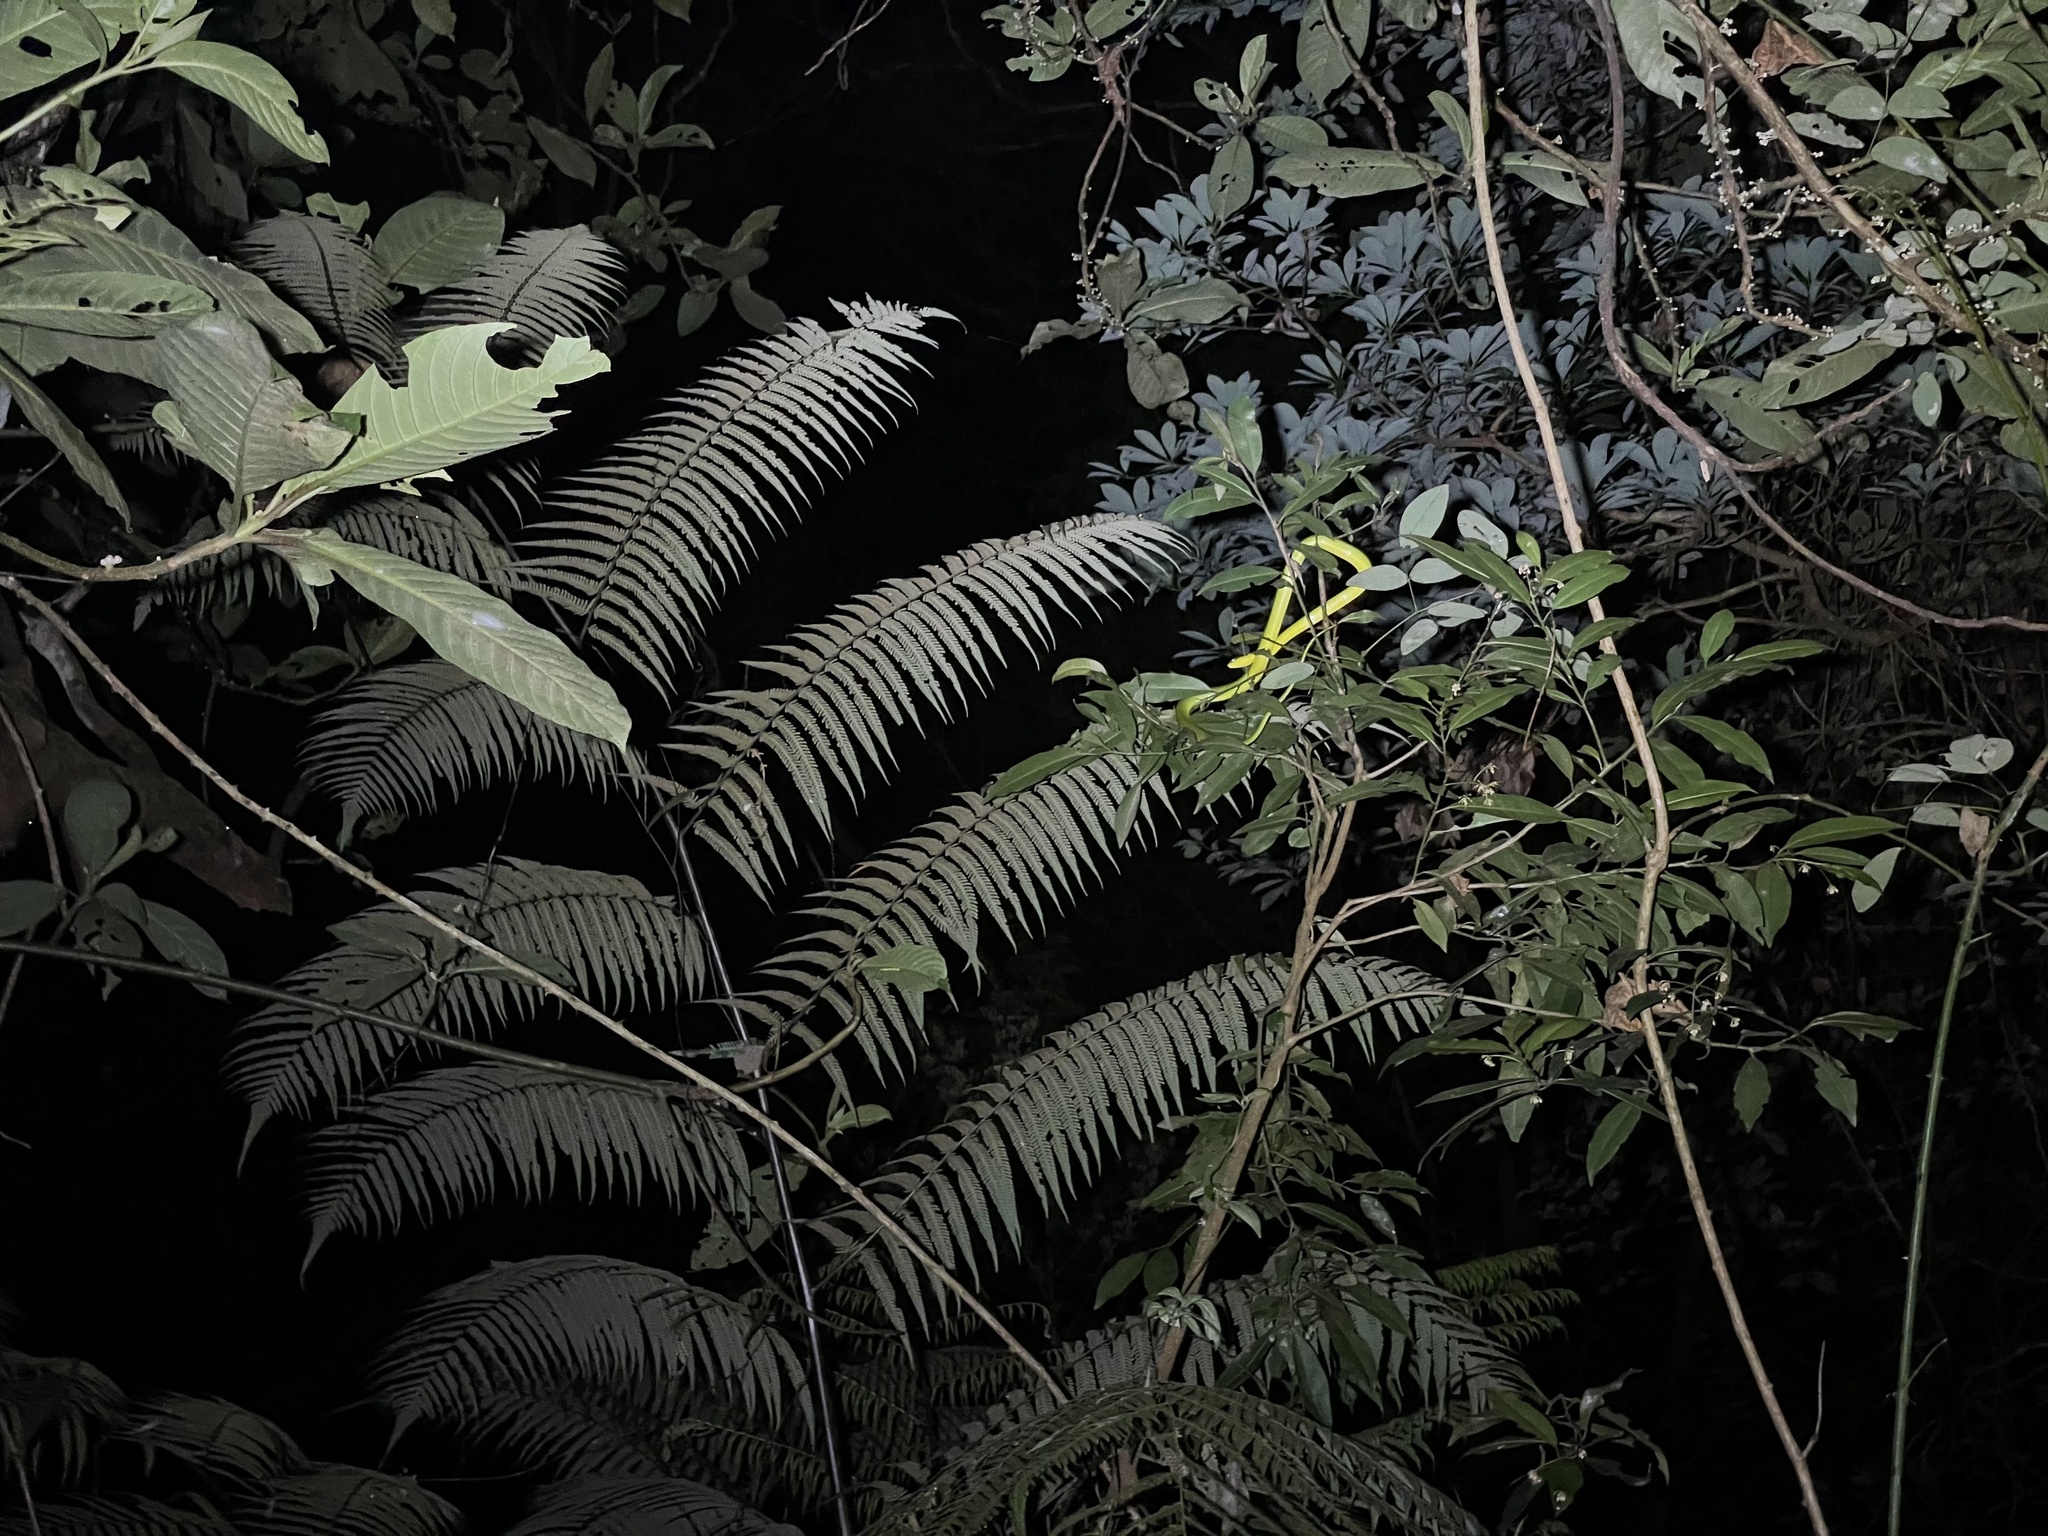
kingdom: Animalia
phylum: Chordata
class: Squamata
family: Colubridae
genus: Ptyas
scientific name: Ptyas major
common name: Chinese green snake
